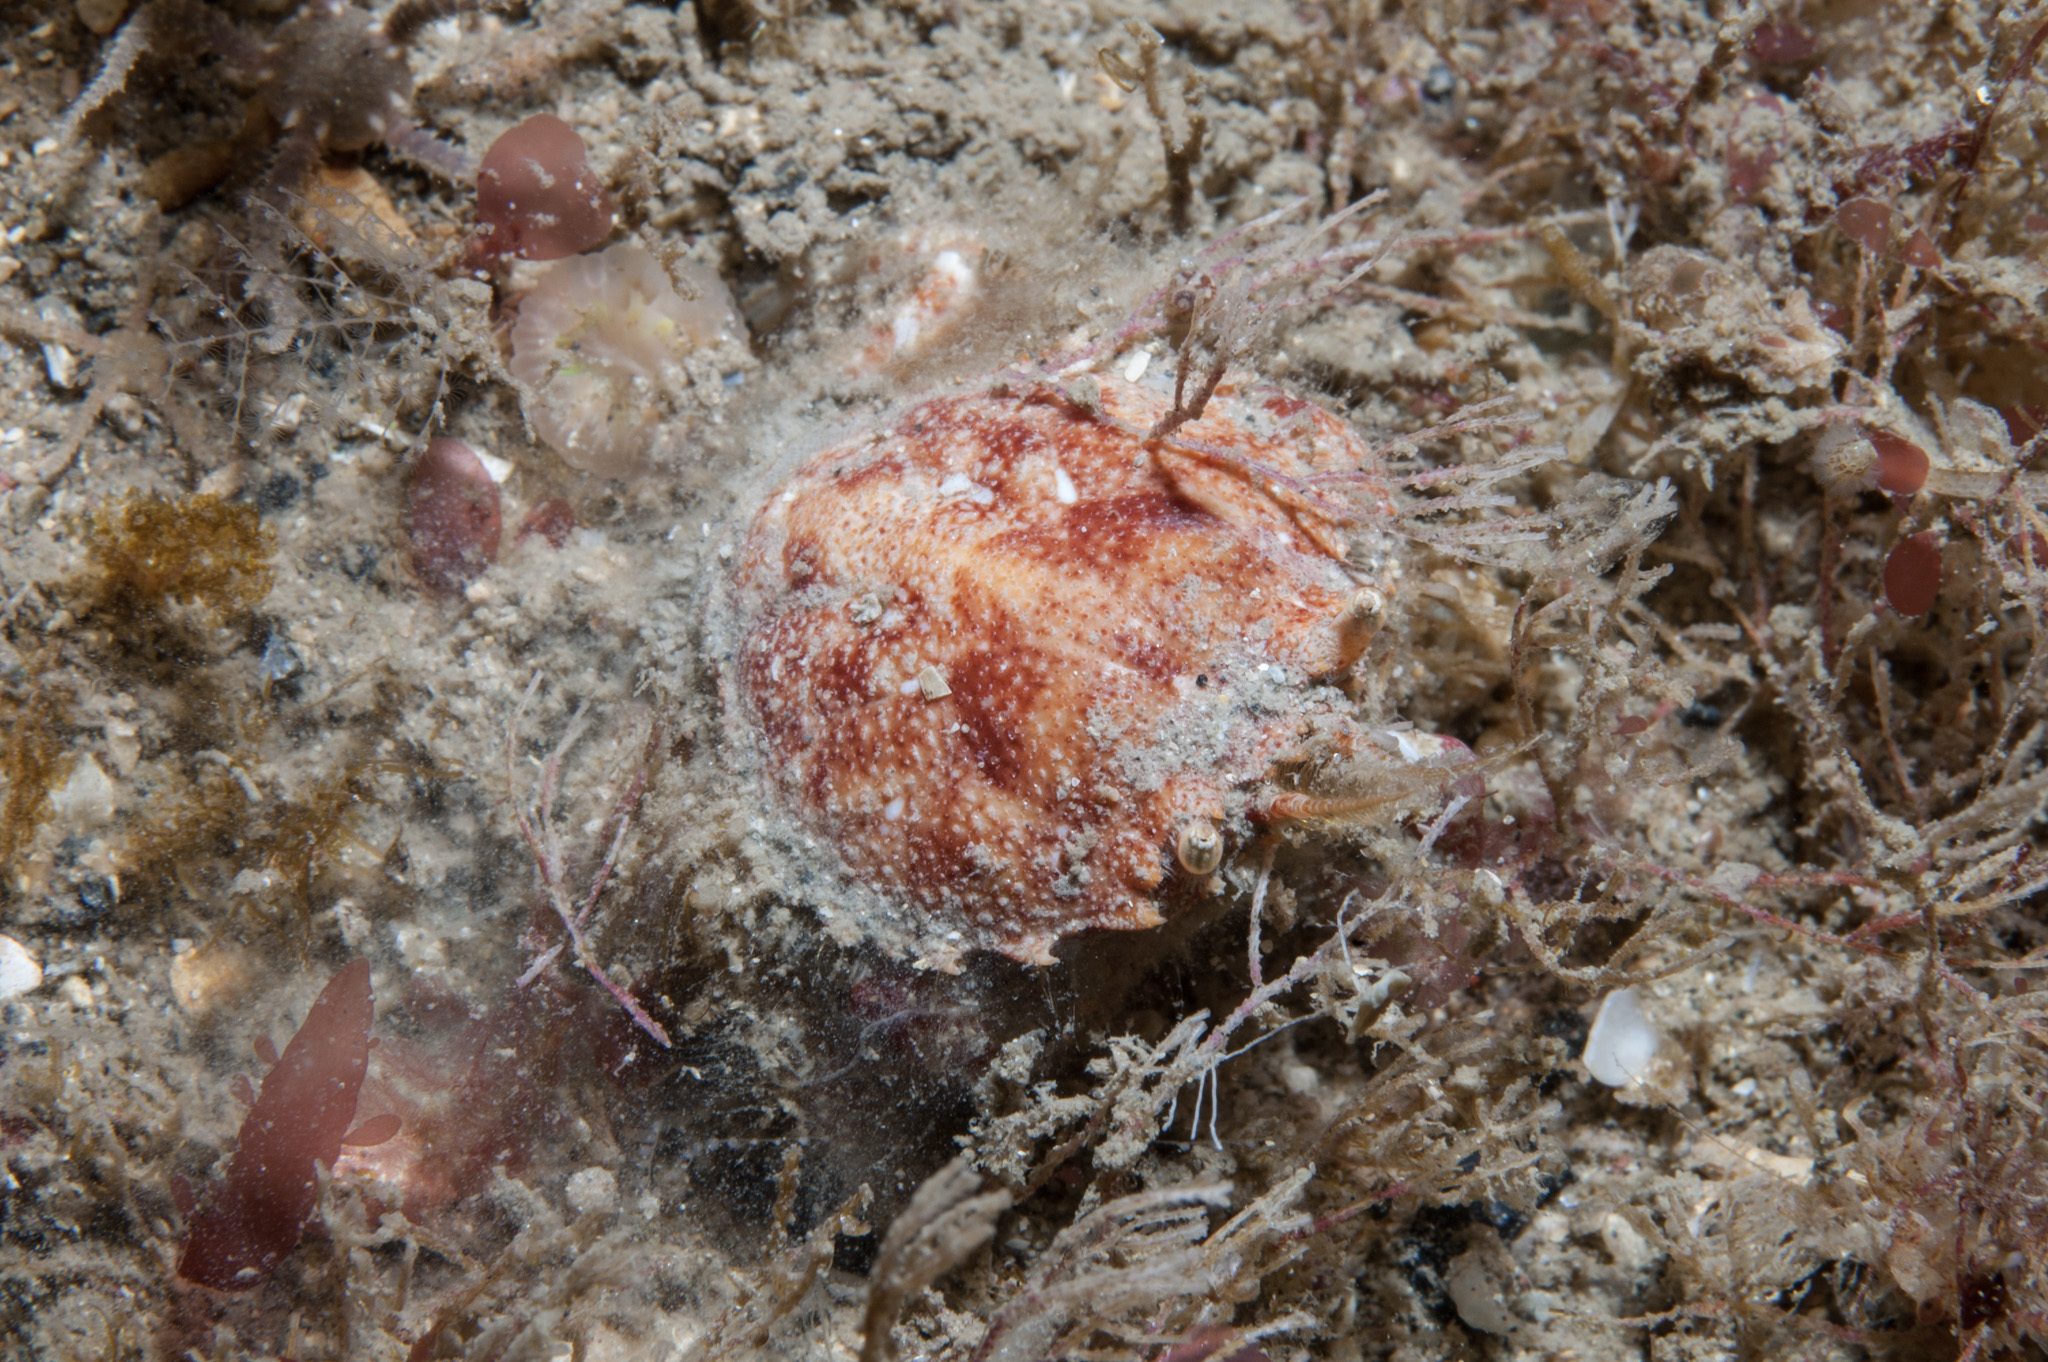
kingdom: Animalia
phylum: Arthropoda
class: Malacostraca
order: Decapoda
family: Atelecyclidae
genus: Atelecyclus
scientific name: Atelecyclus rotundatus
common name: Circular crab
